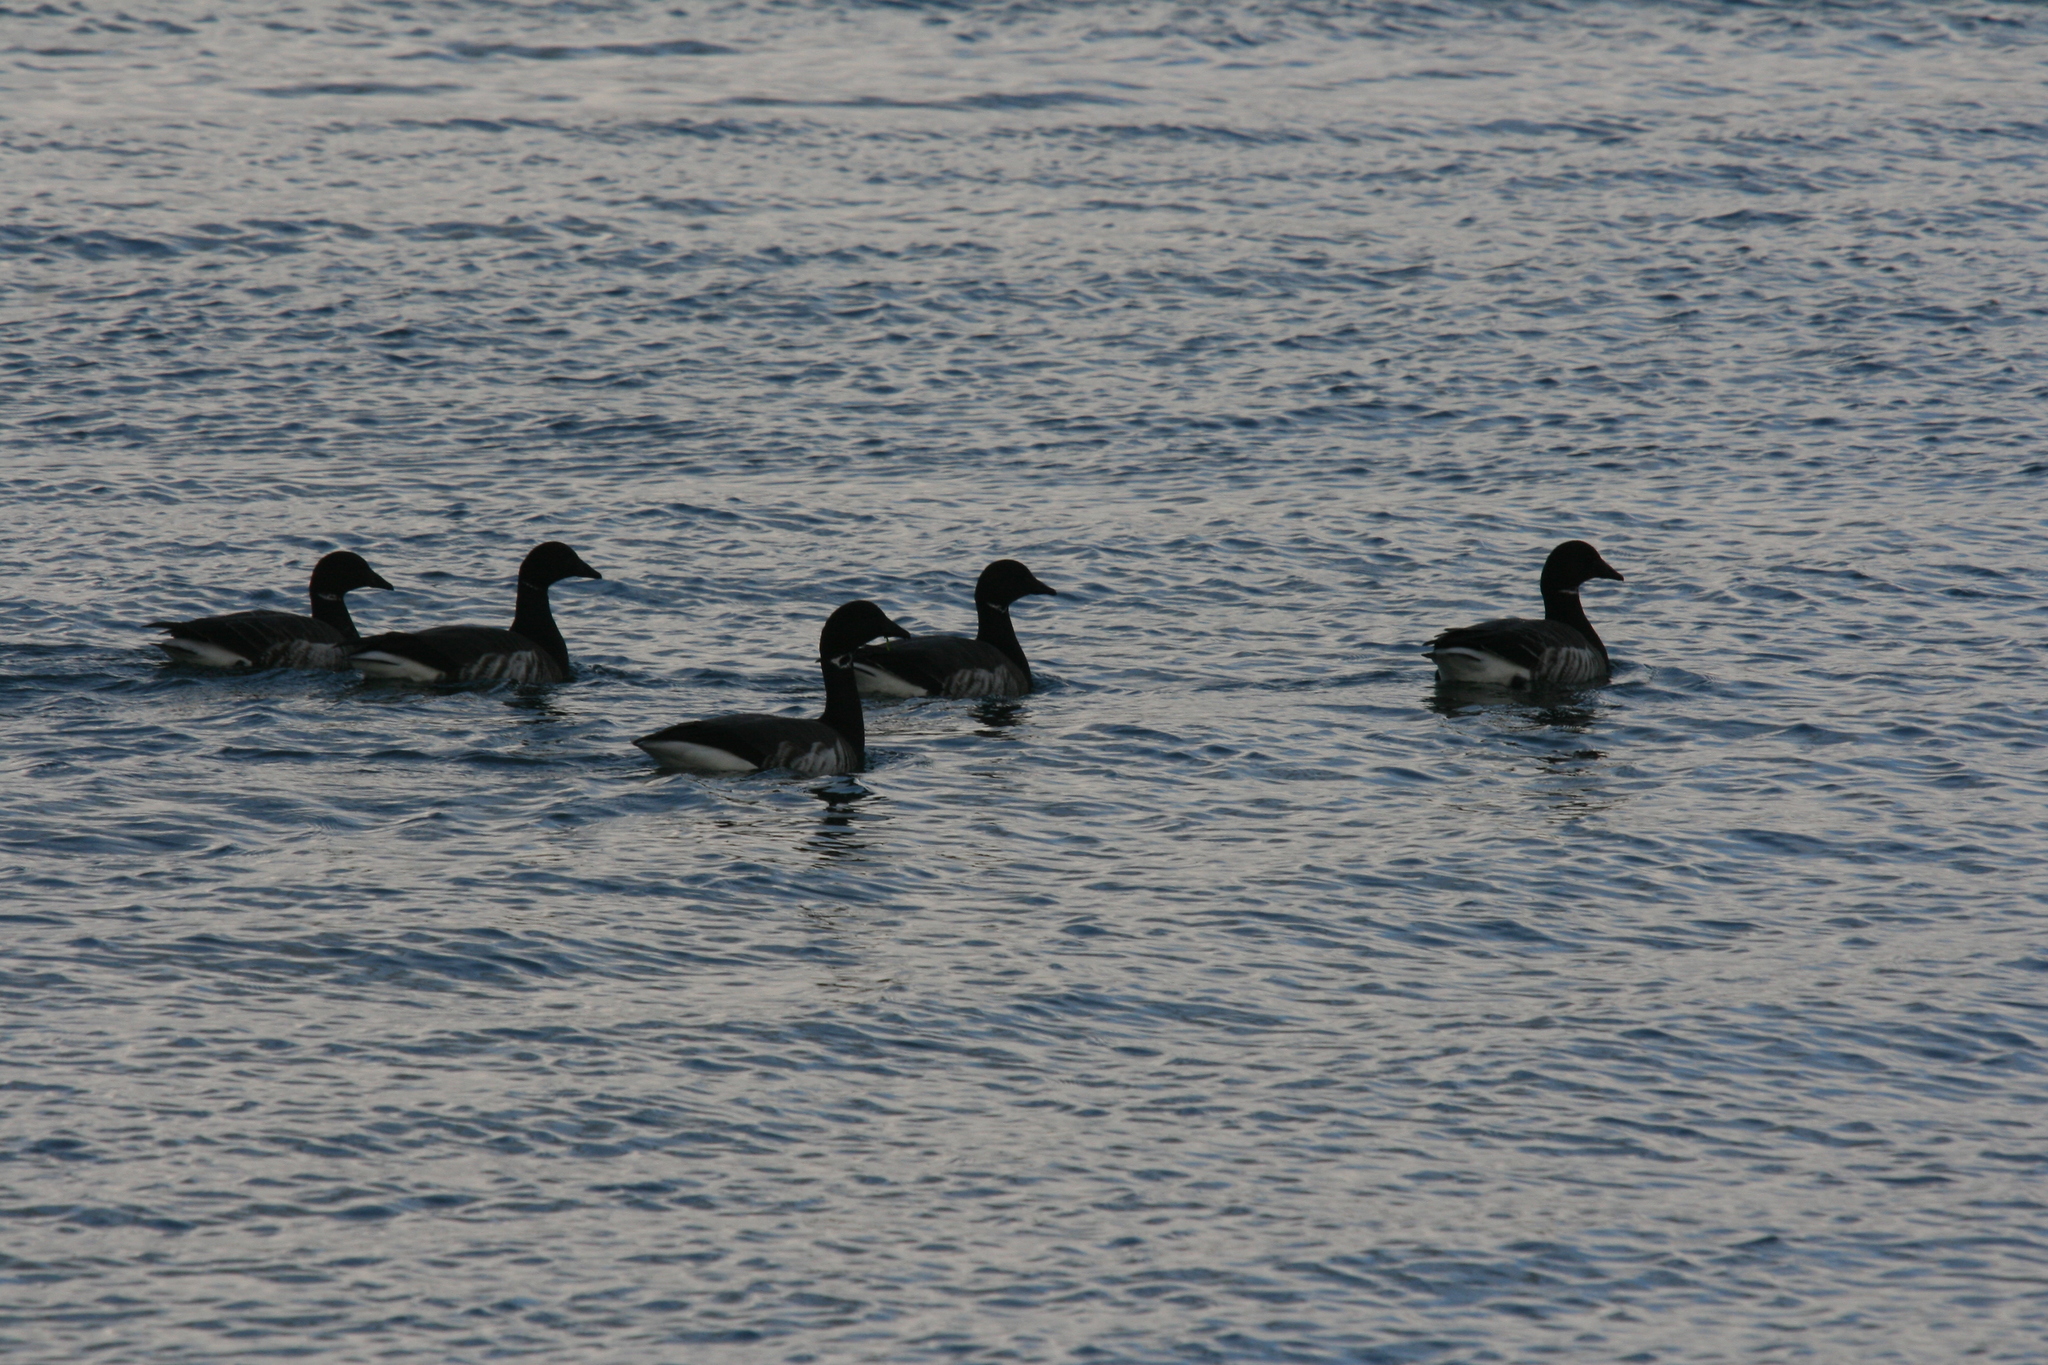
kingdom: Animalia
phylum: Chordata
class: Aves
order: Anseriformes
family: Anatidae
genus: Branta
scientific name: Branta bernicla
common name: Brant goose
